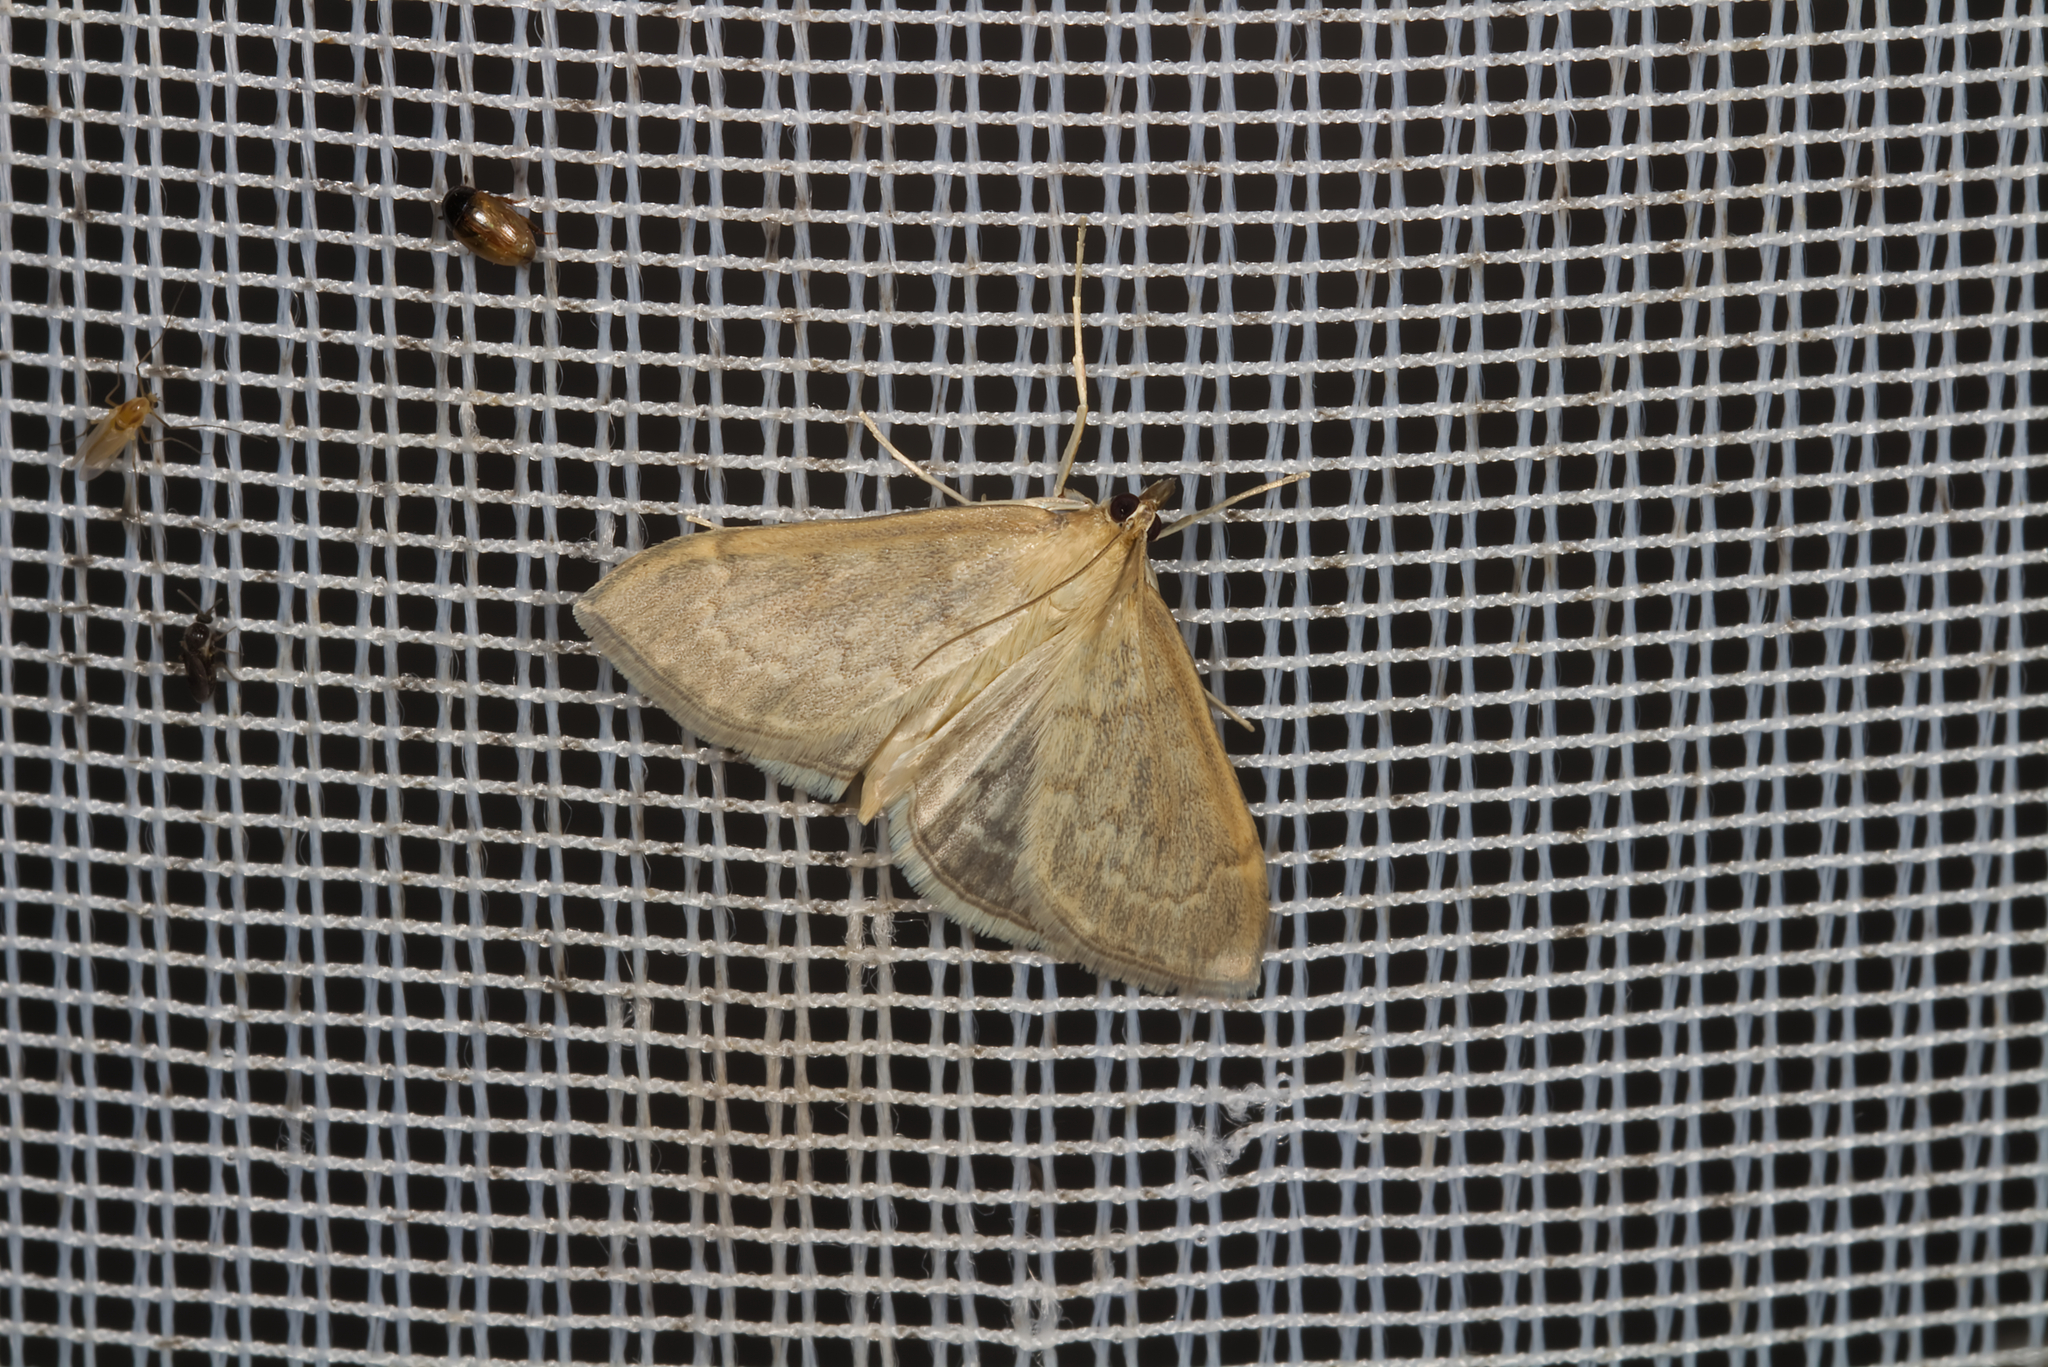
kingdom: Animalia
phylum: Arthropoda
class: Insecta
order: Lepidoptera
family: Crambidae
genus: Anania
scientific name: Anania fuscalis
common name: Cinerous pearl
